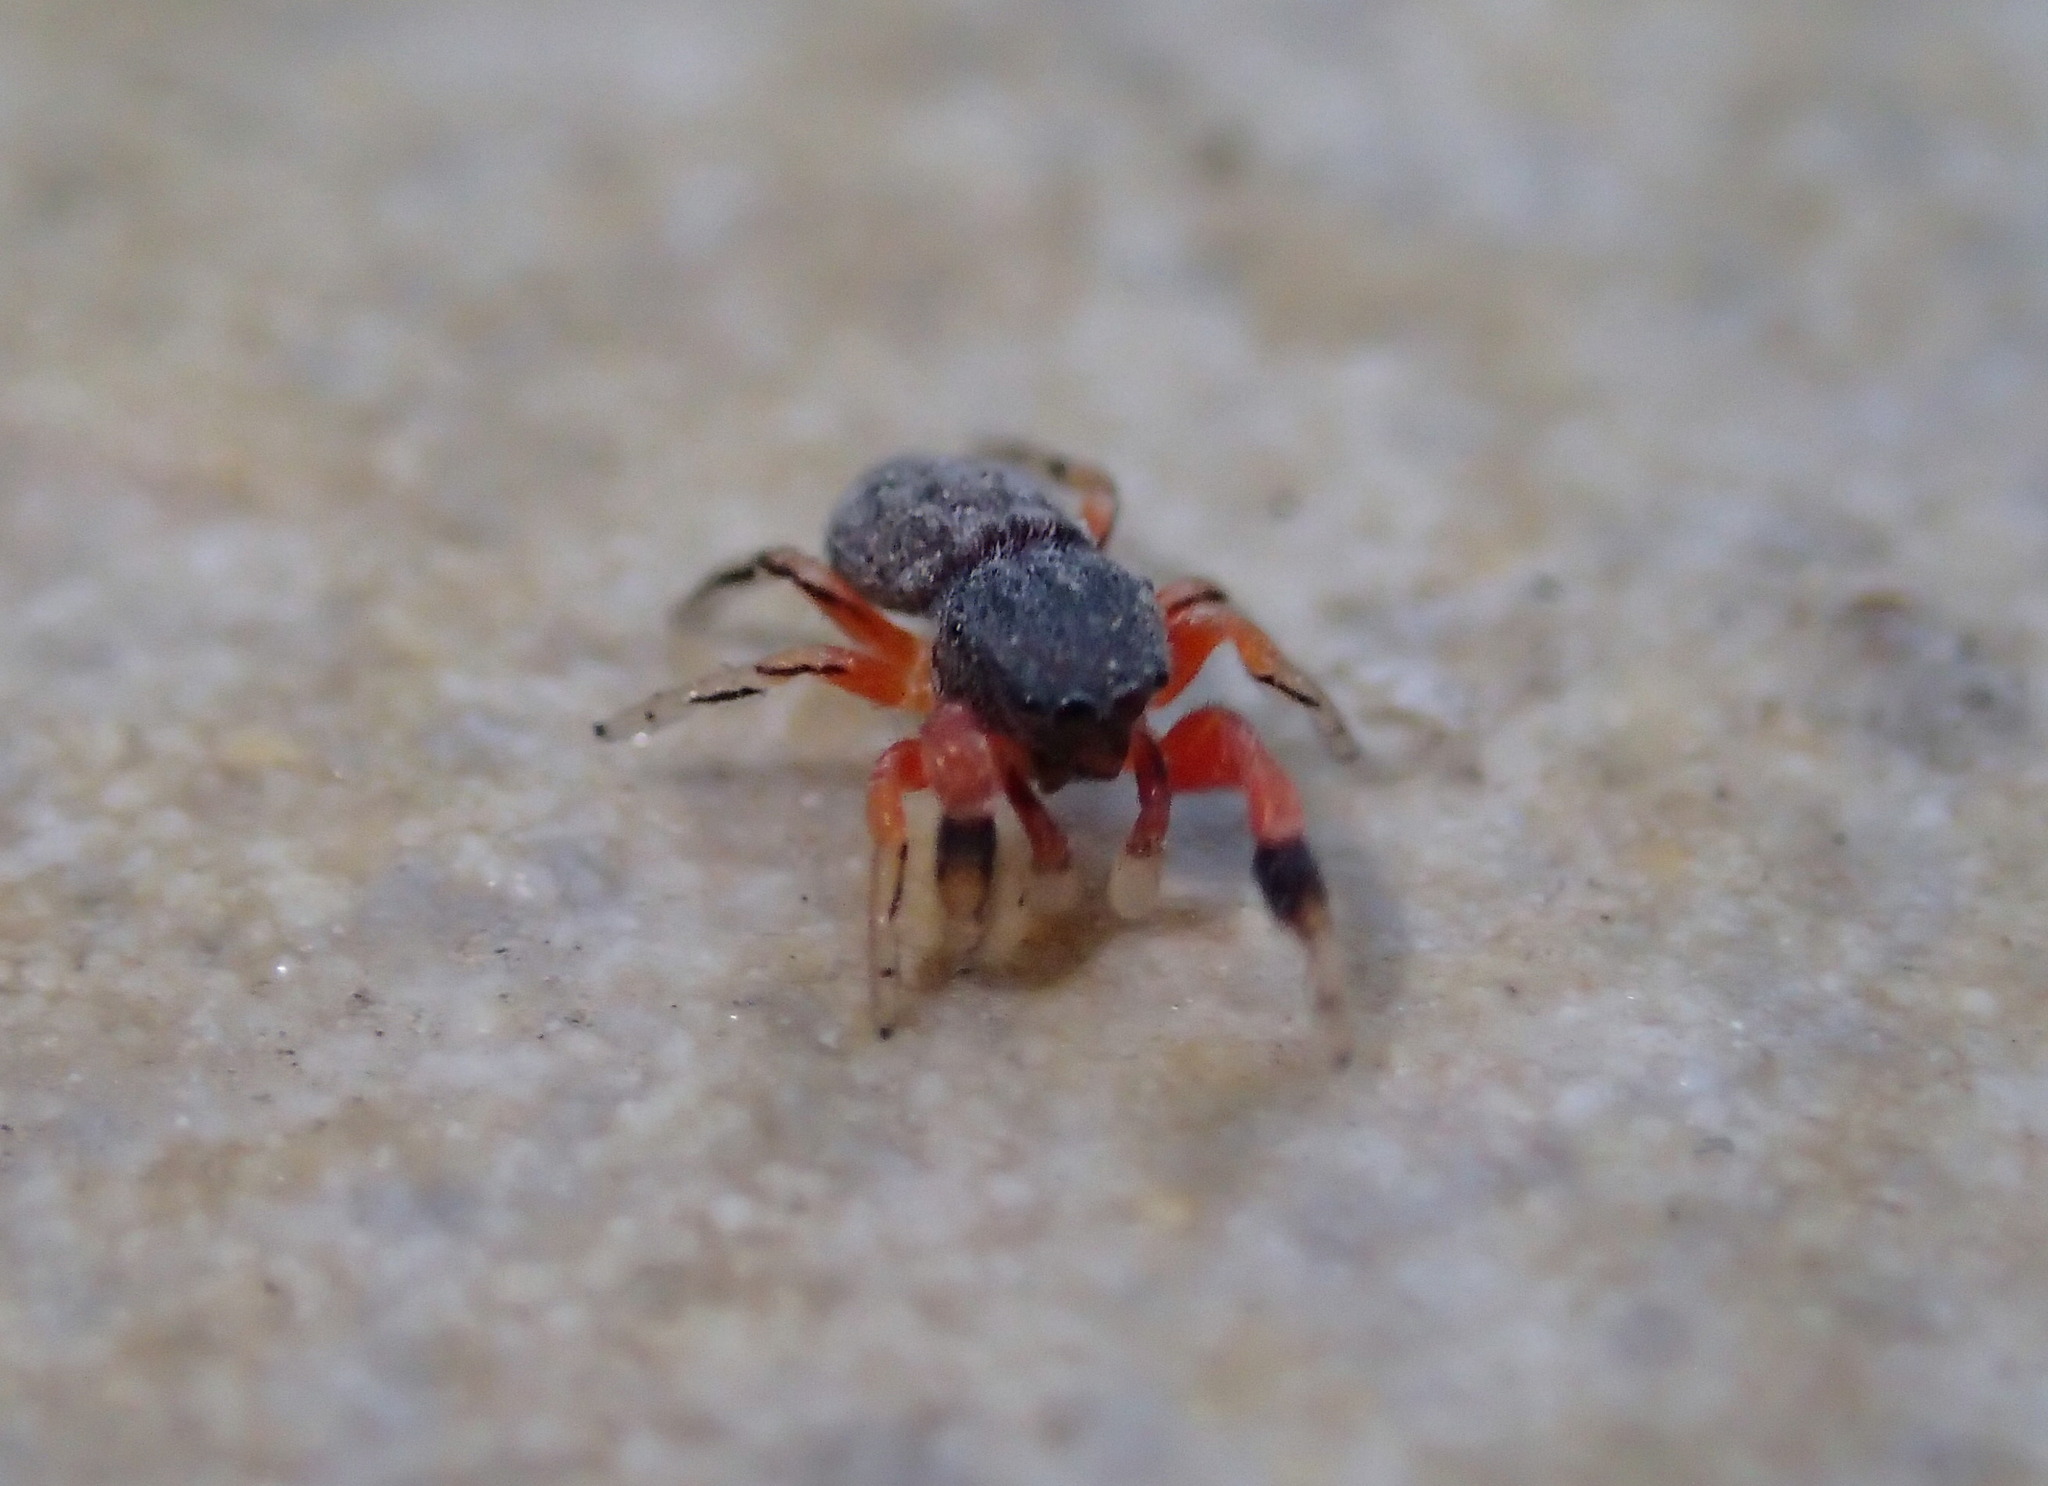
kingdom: Animalia
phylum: Arthropoda
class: Arachnida
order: Araneae
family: Salticidae
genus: Ballus
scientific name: Ballus rufipes
